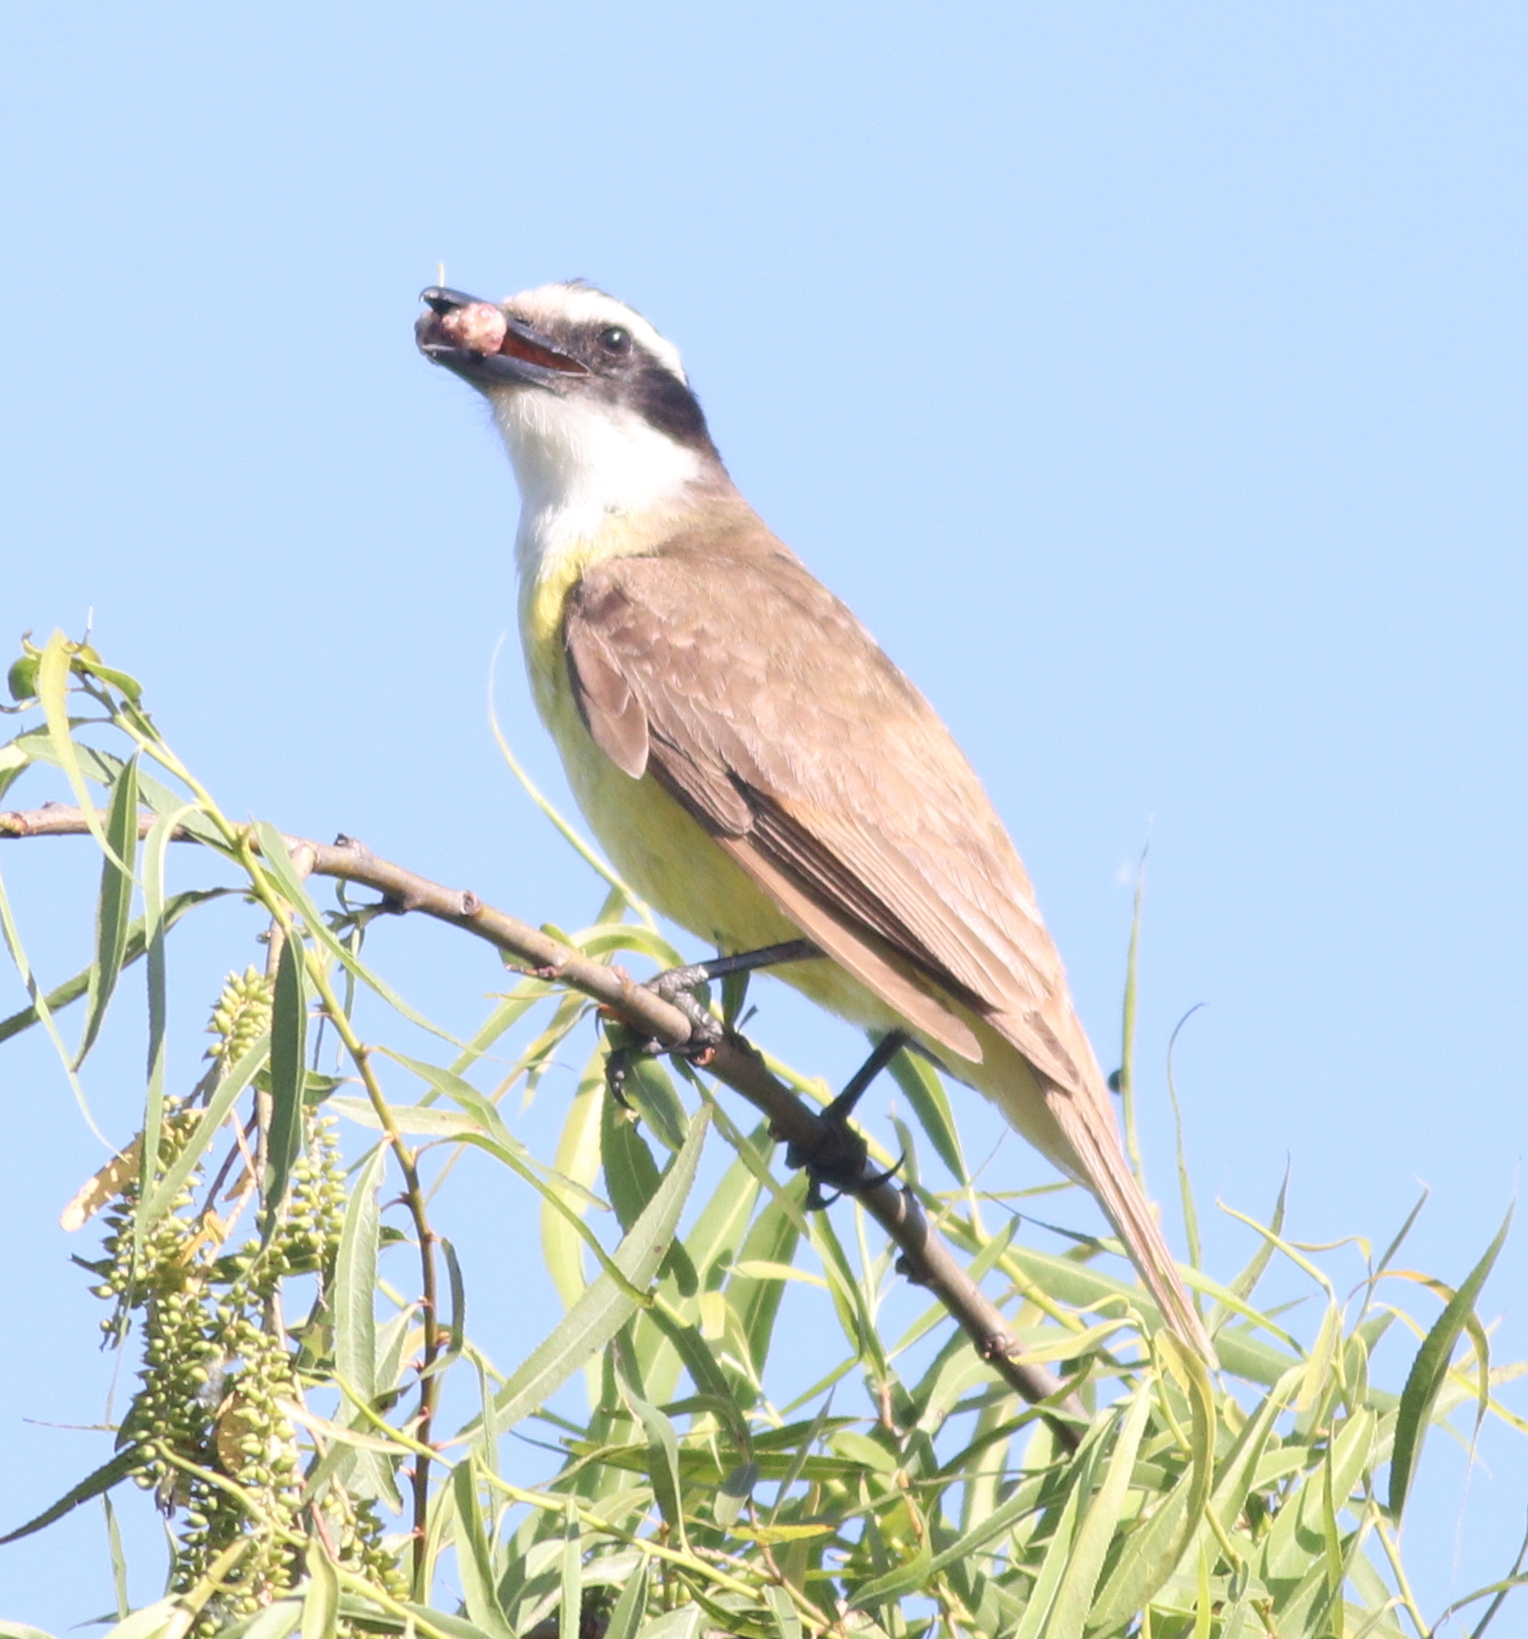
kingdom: Animalia
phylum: Chordata
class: Aves
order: Passeriformes
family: Tyrannidae
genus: Pitangus
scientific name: Pitangus sulphuratus
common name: Great kiskadee
